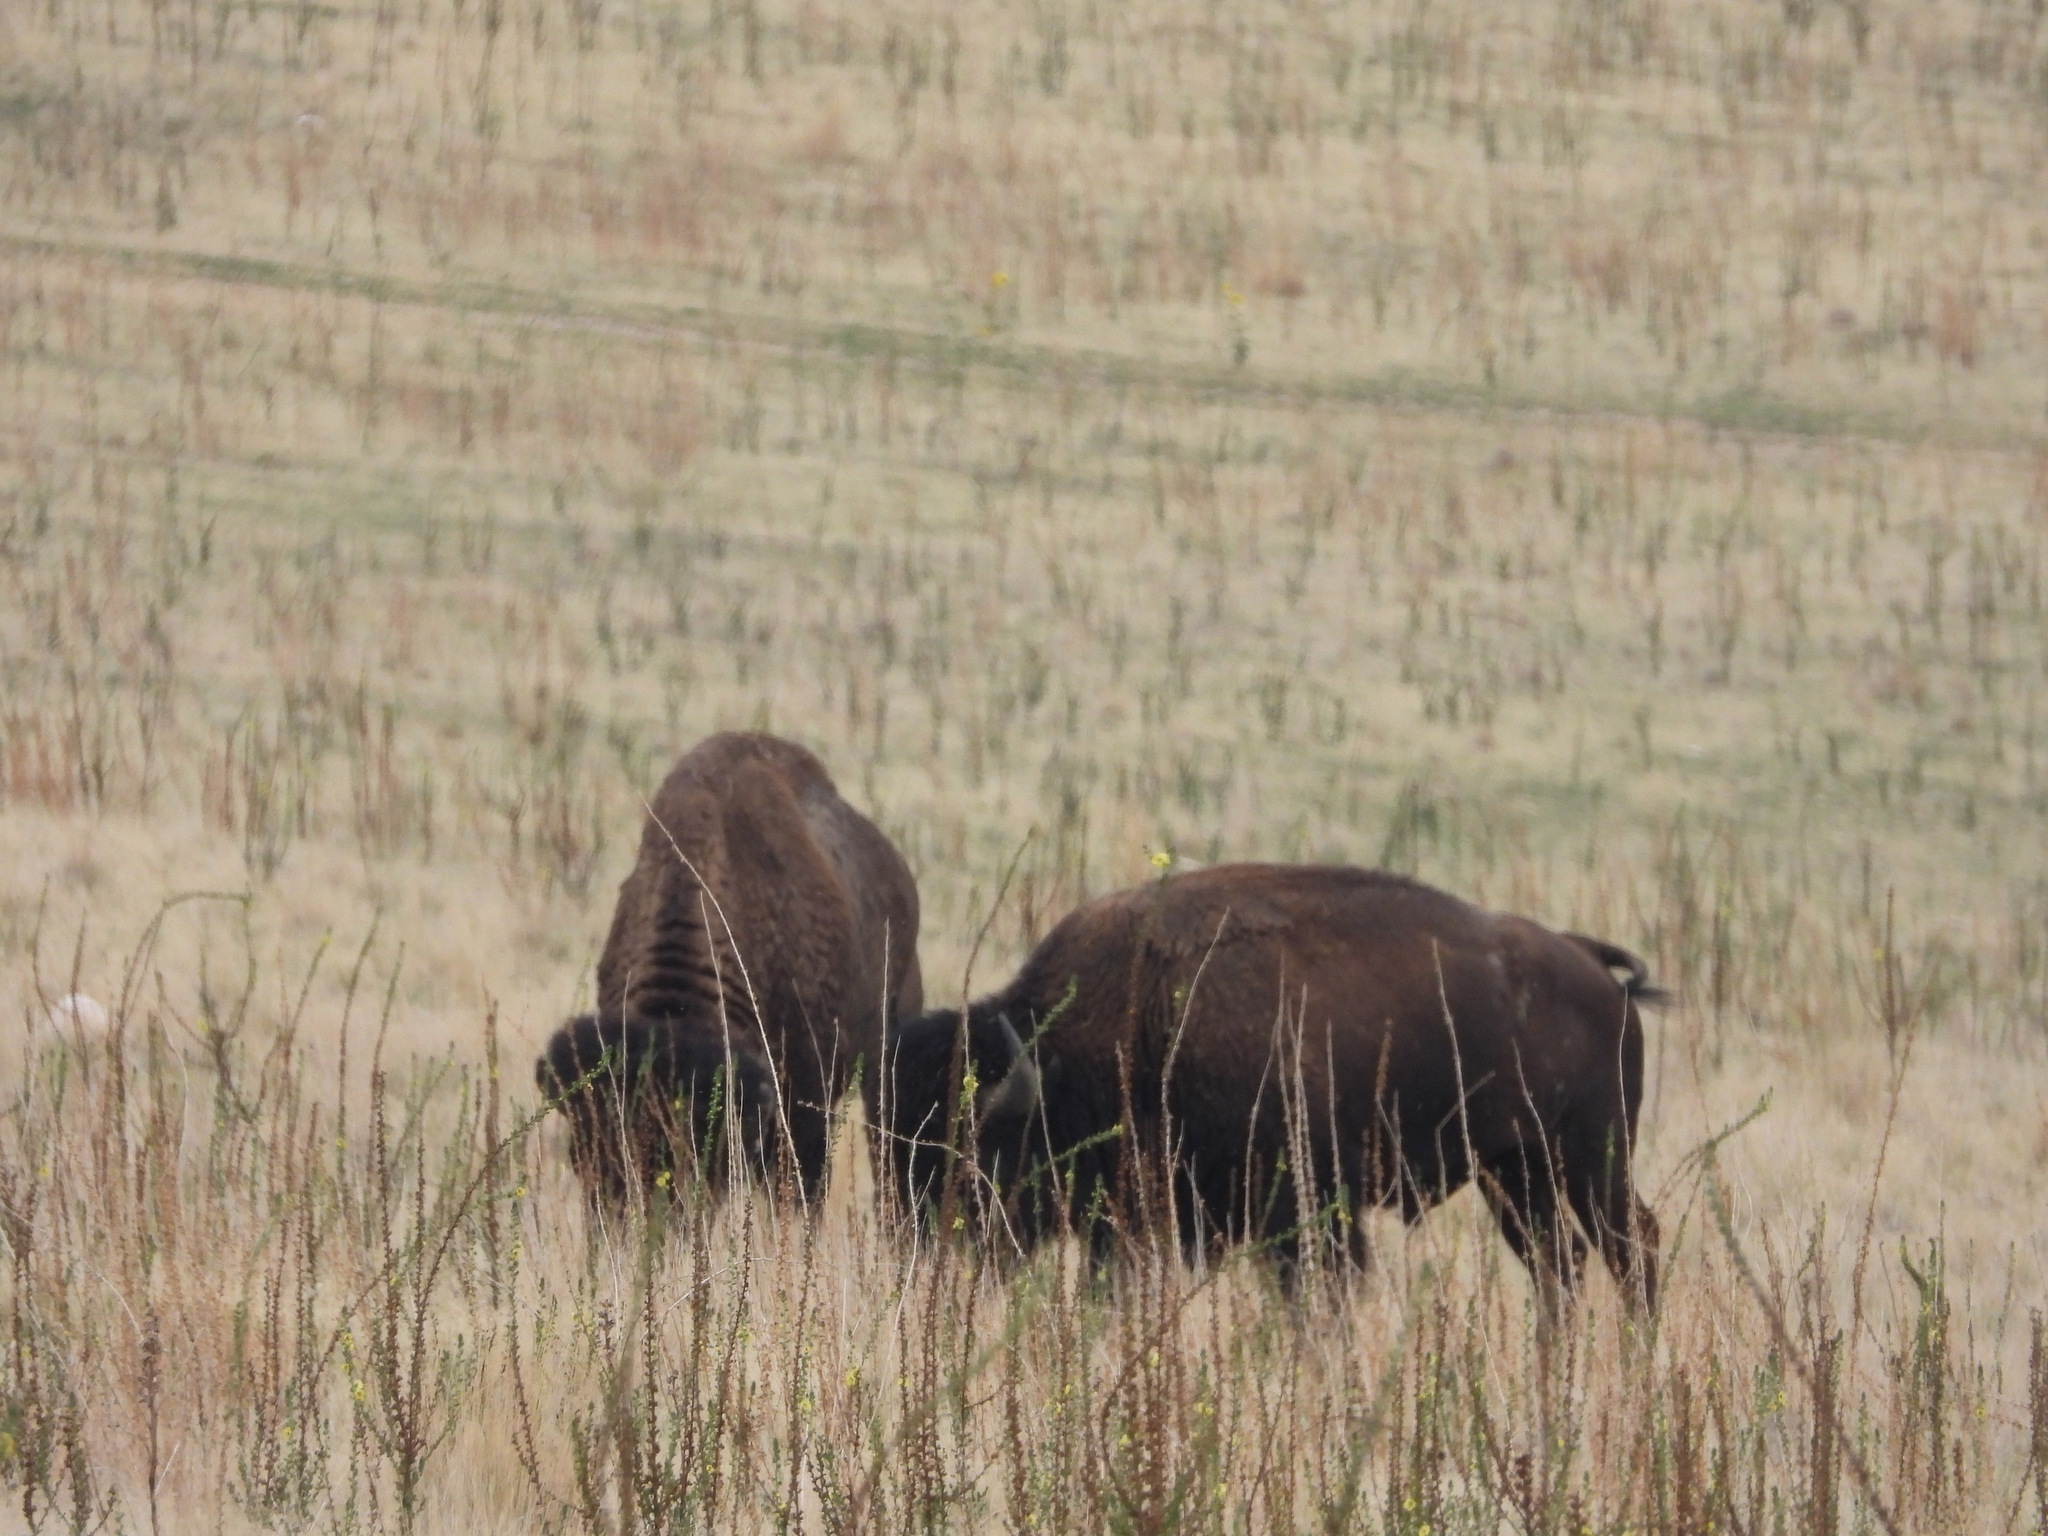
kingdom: Animalia
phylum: Chordata
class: Mammalia
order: Artiodactyla
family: Bovidae
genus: Bison
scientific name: Bison bison
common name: American bison
